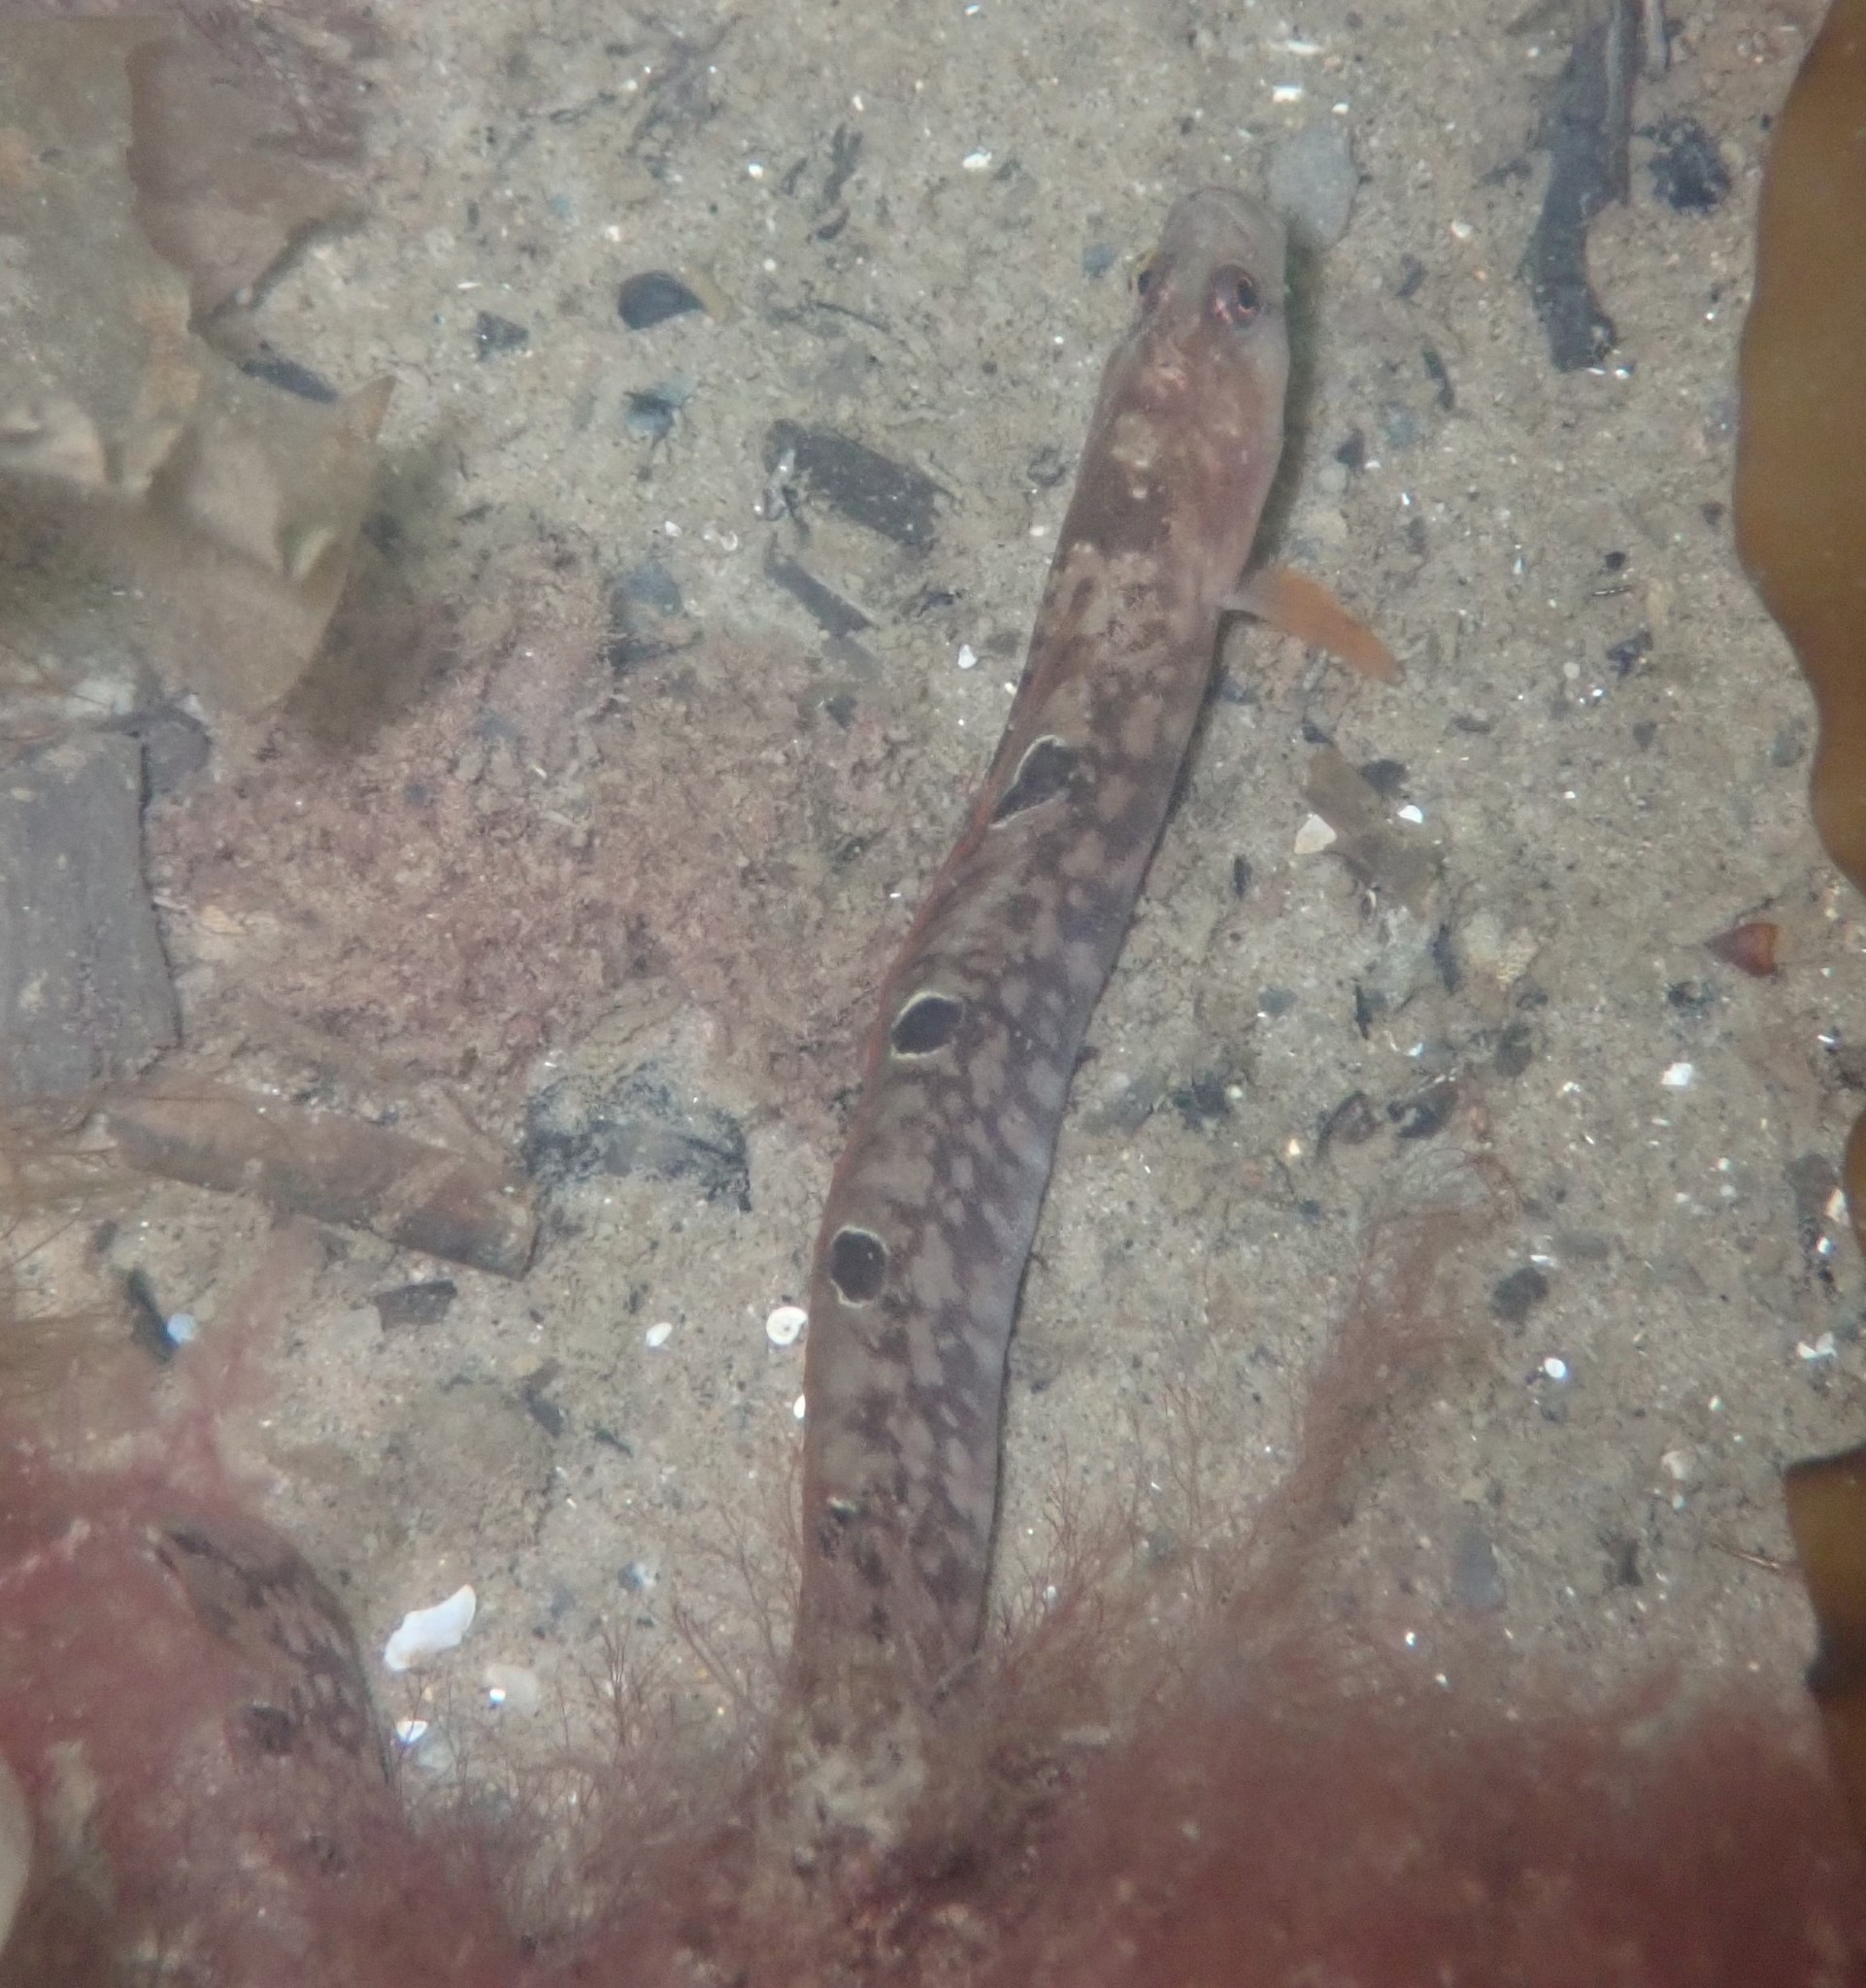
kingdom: Animalia
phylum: Chordata
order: Perciformes
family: Pholidae
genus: Pholis
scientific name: Pholis gunnellus
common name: Butterfish
